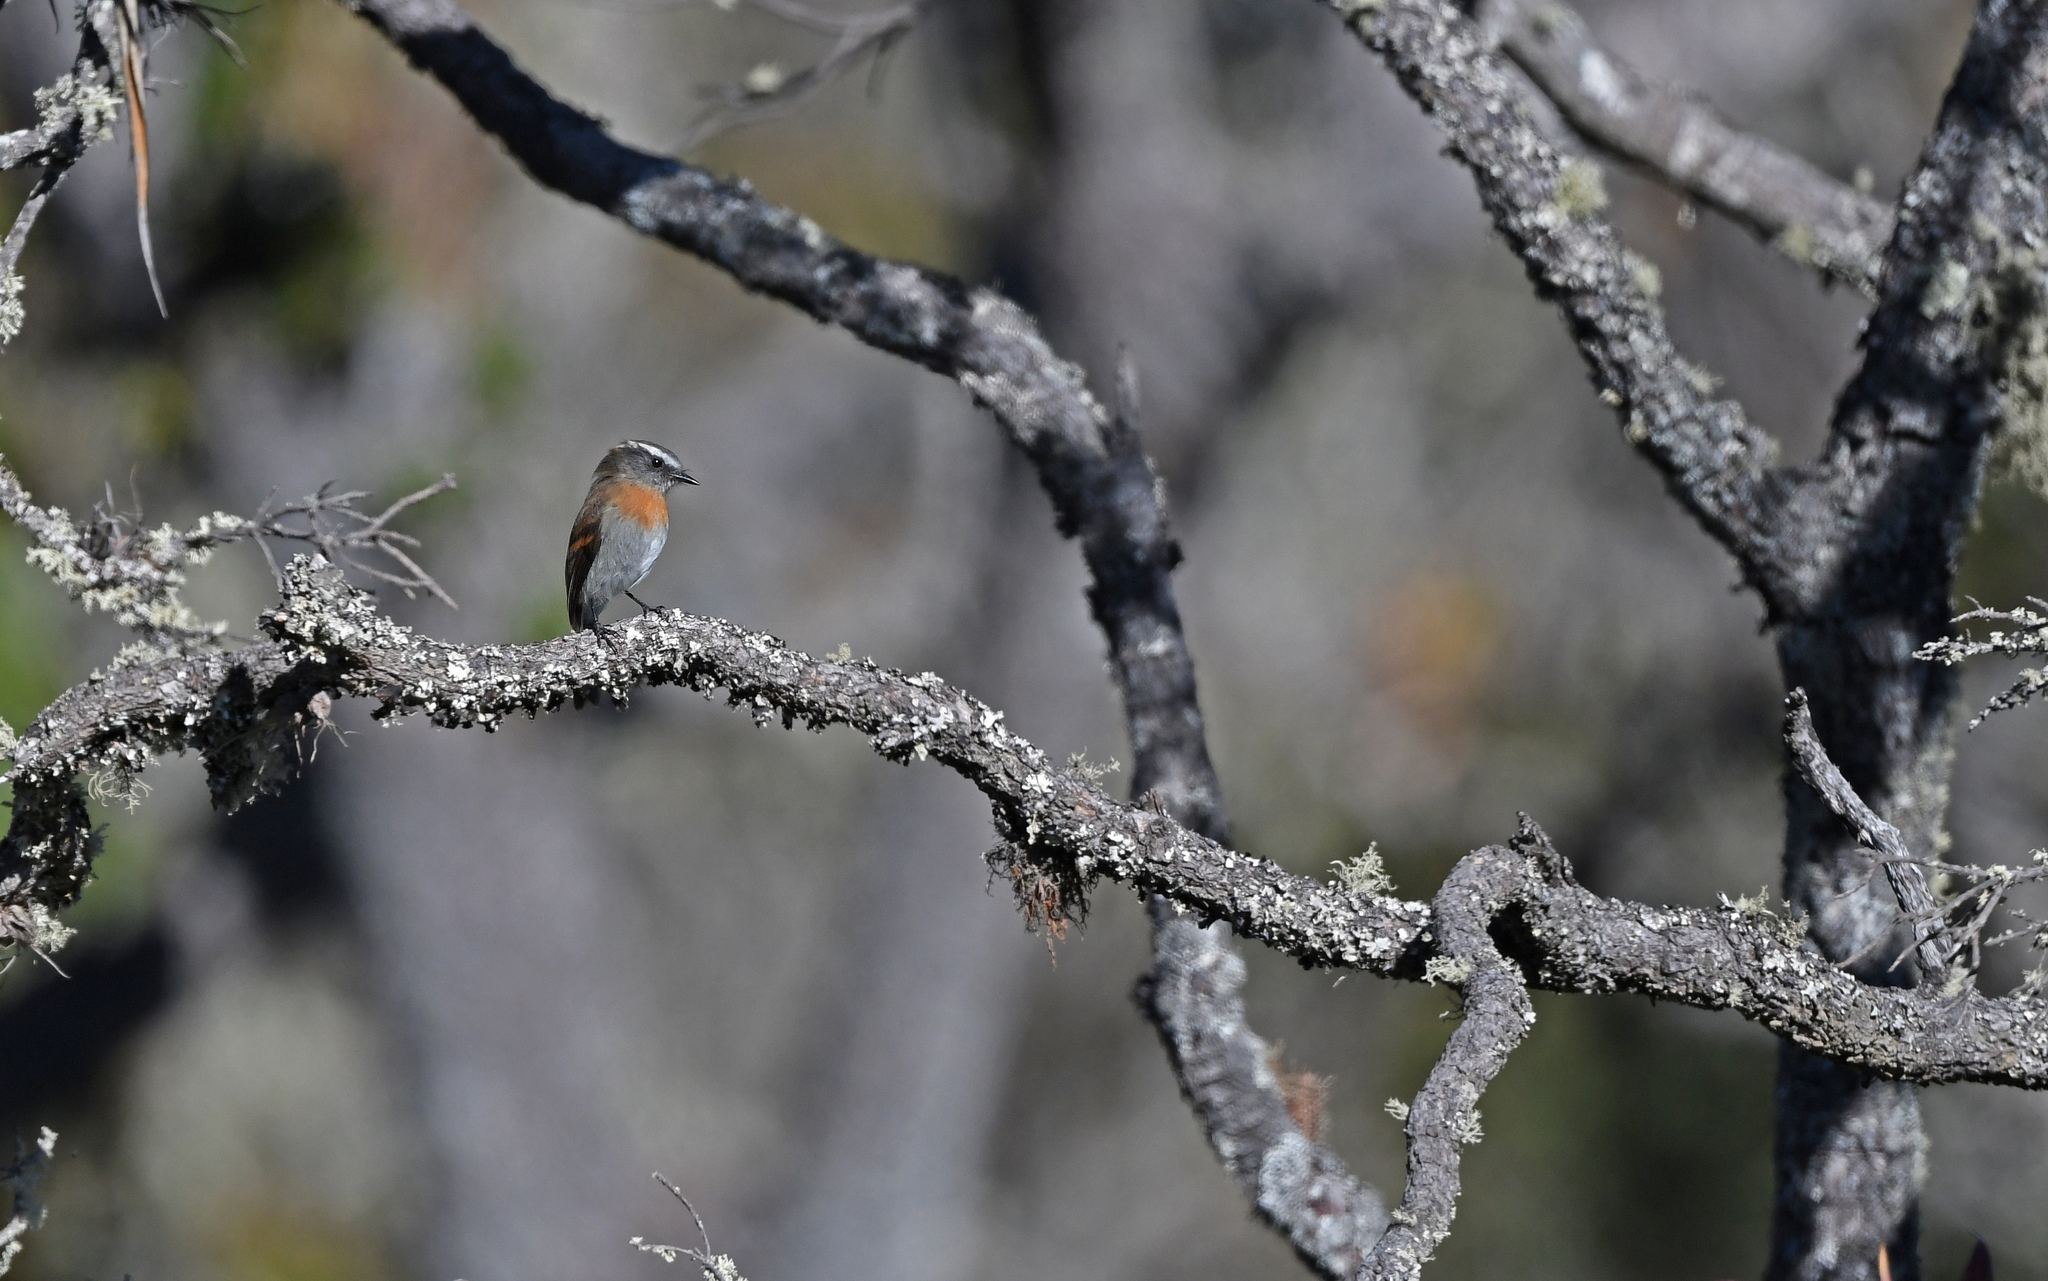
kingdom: Animalia
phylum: Chordata
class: Aves
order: Passeriformes
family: Tyrannidae
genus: Ochthoeca
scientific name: Ochthoeca rufipectoralis
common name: Rufous-breasted chat-tyrant
